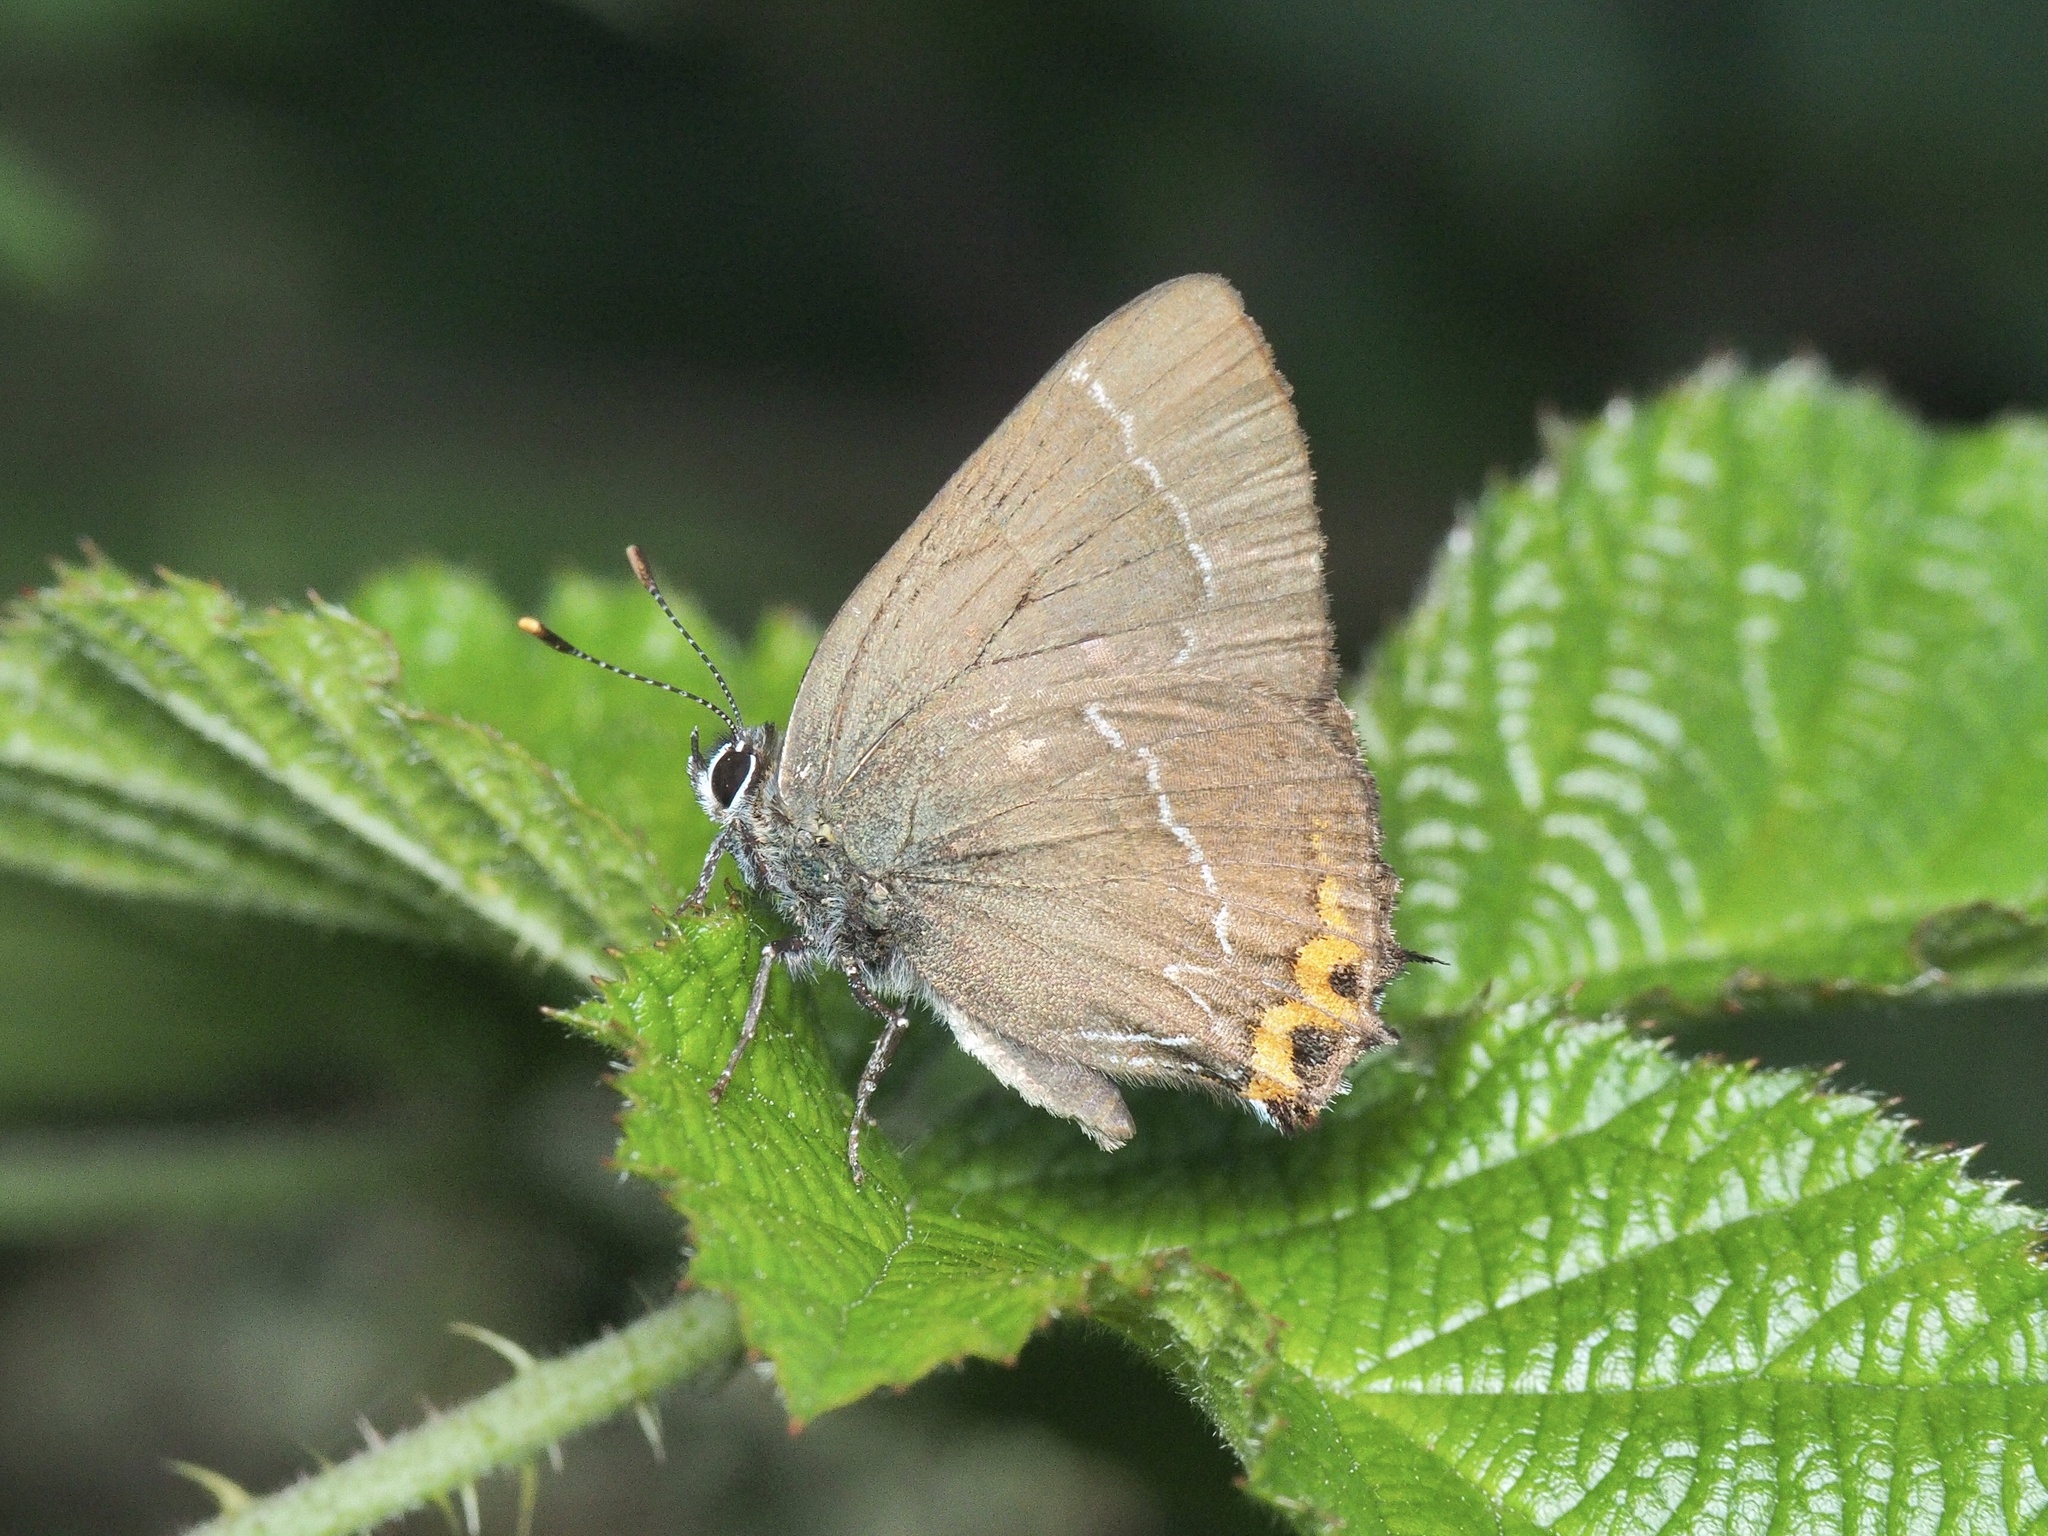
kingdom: Animalia
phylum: Arthropoda
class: Insecta
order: Lepidoptera
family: Lycaenidae
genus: Satyrium
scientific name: Satyrium w-album
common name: White-letter hairstreak
